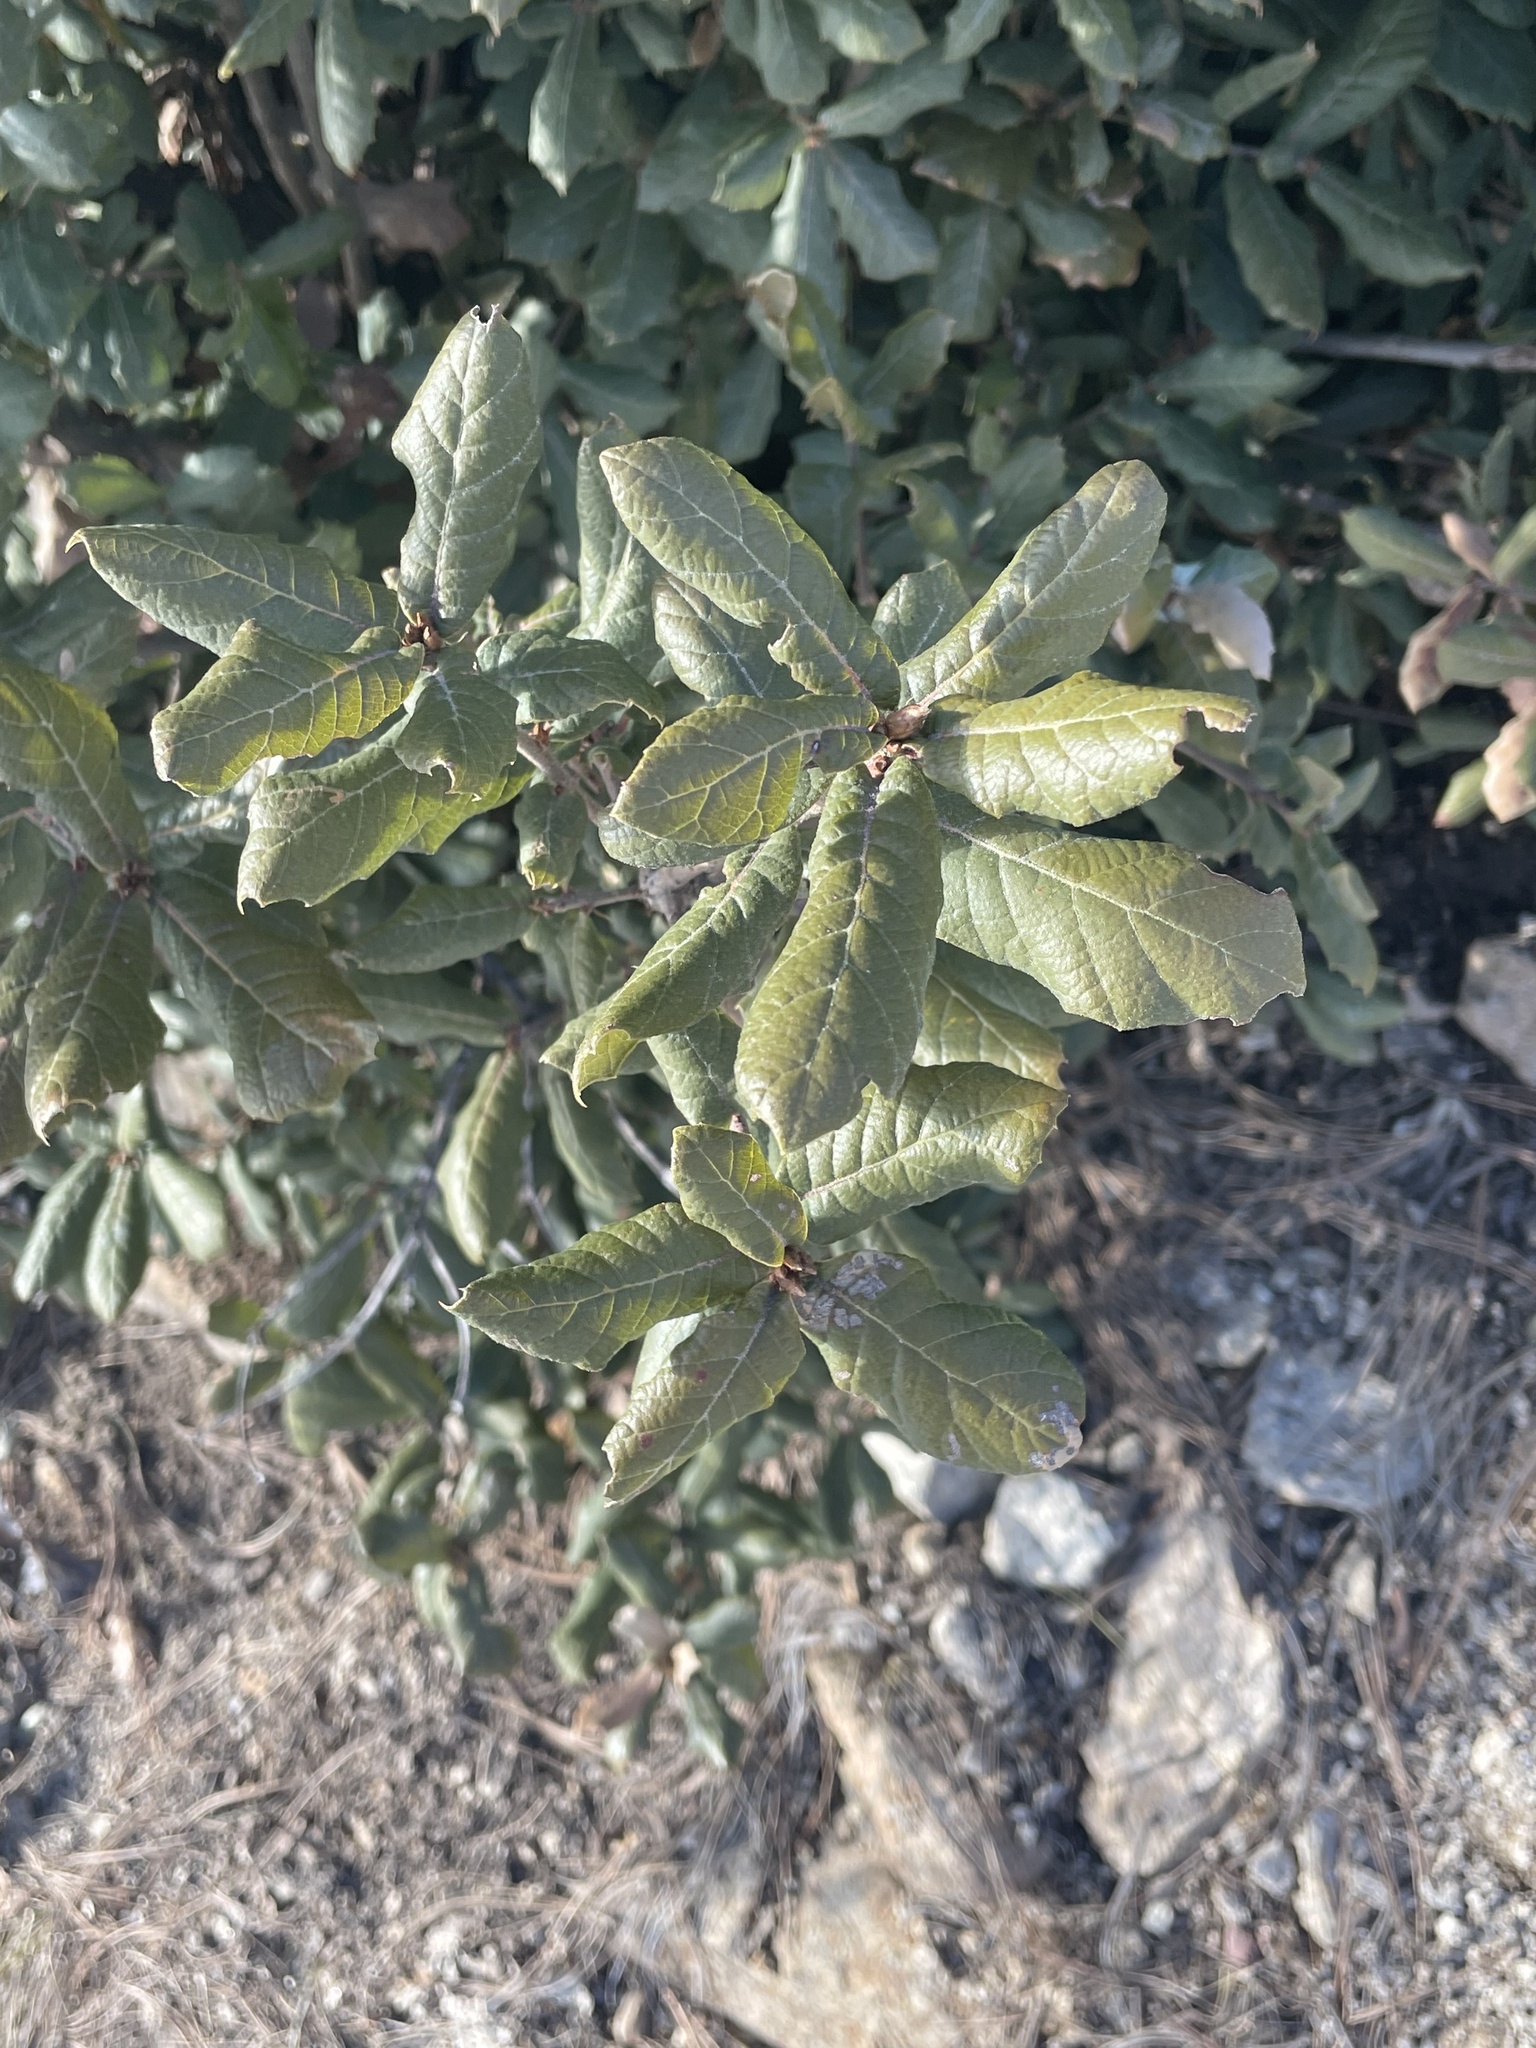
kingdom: Plantae
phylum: Tracheophyta
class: Magnoliopsida
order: Fagales
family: Fagaceae
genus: Quercus
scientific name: Quercus rugosa
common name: Netleaf oak
